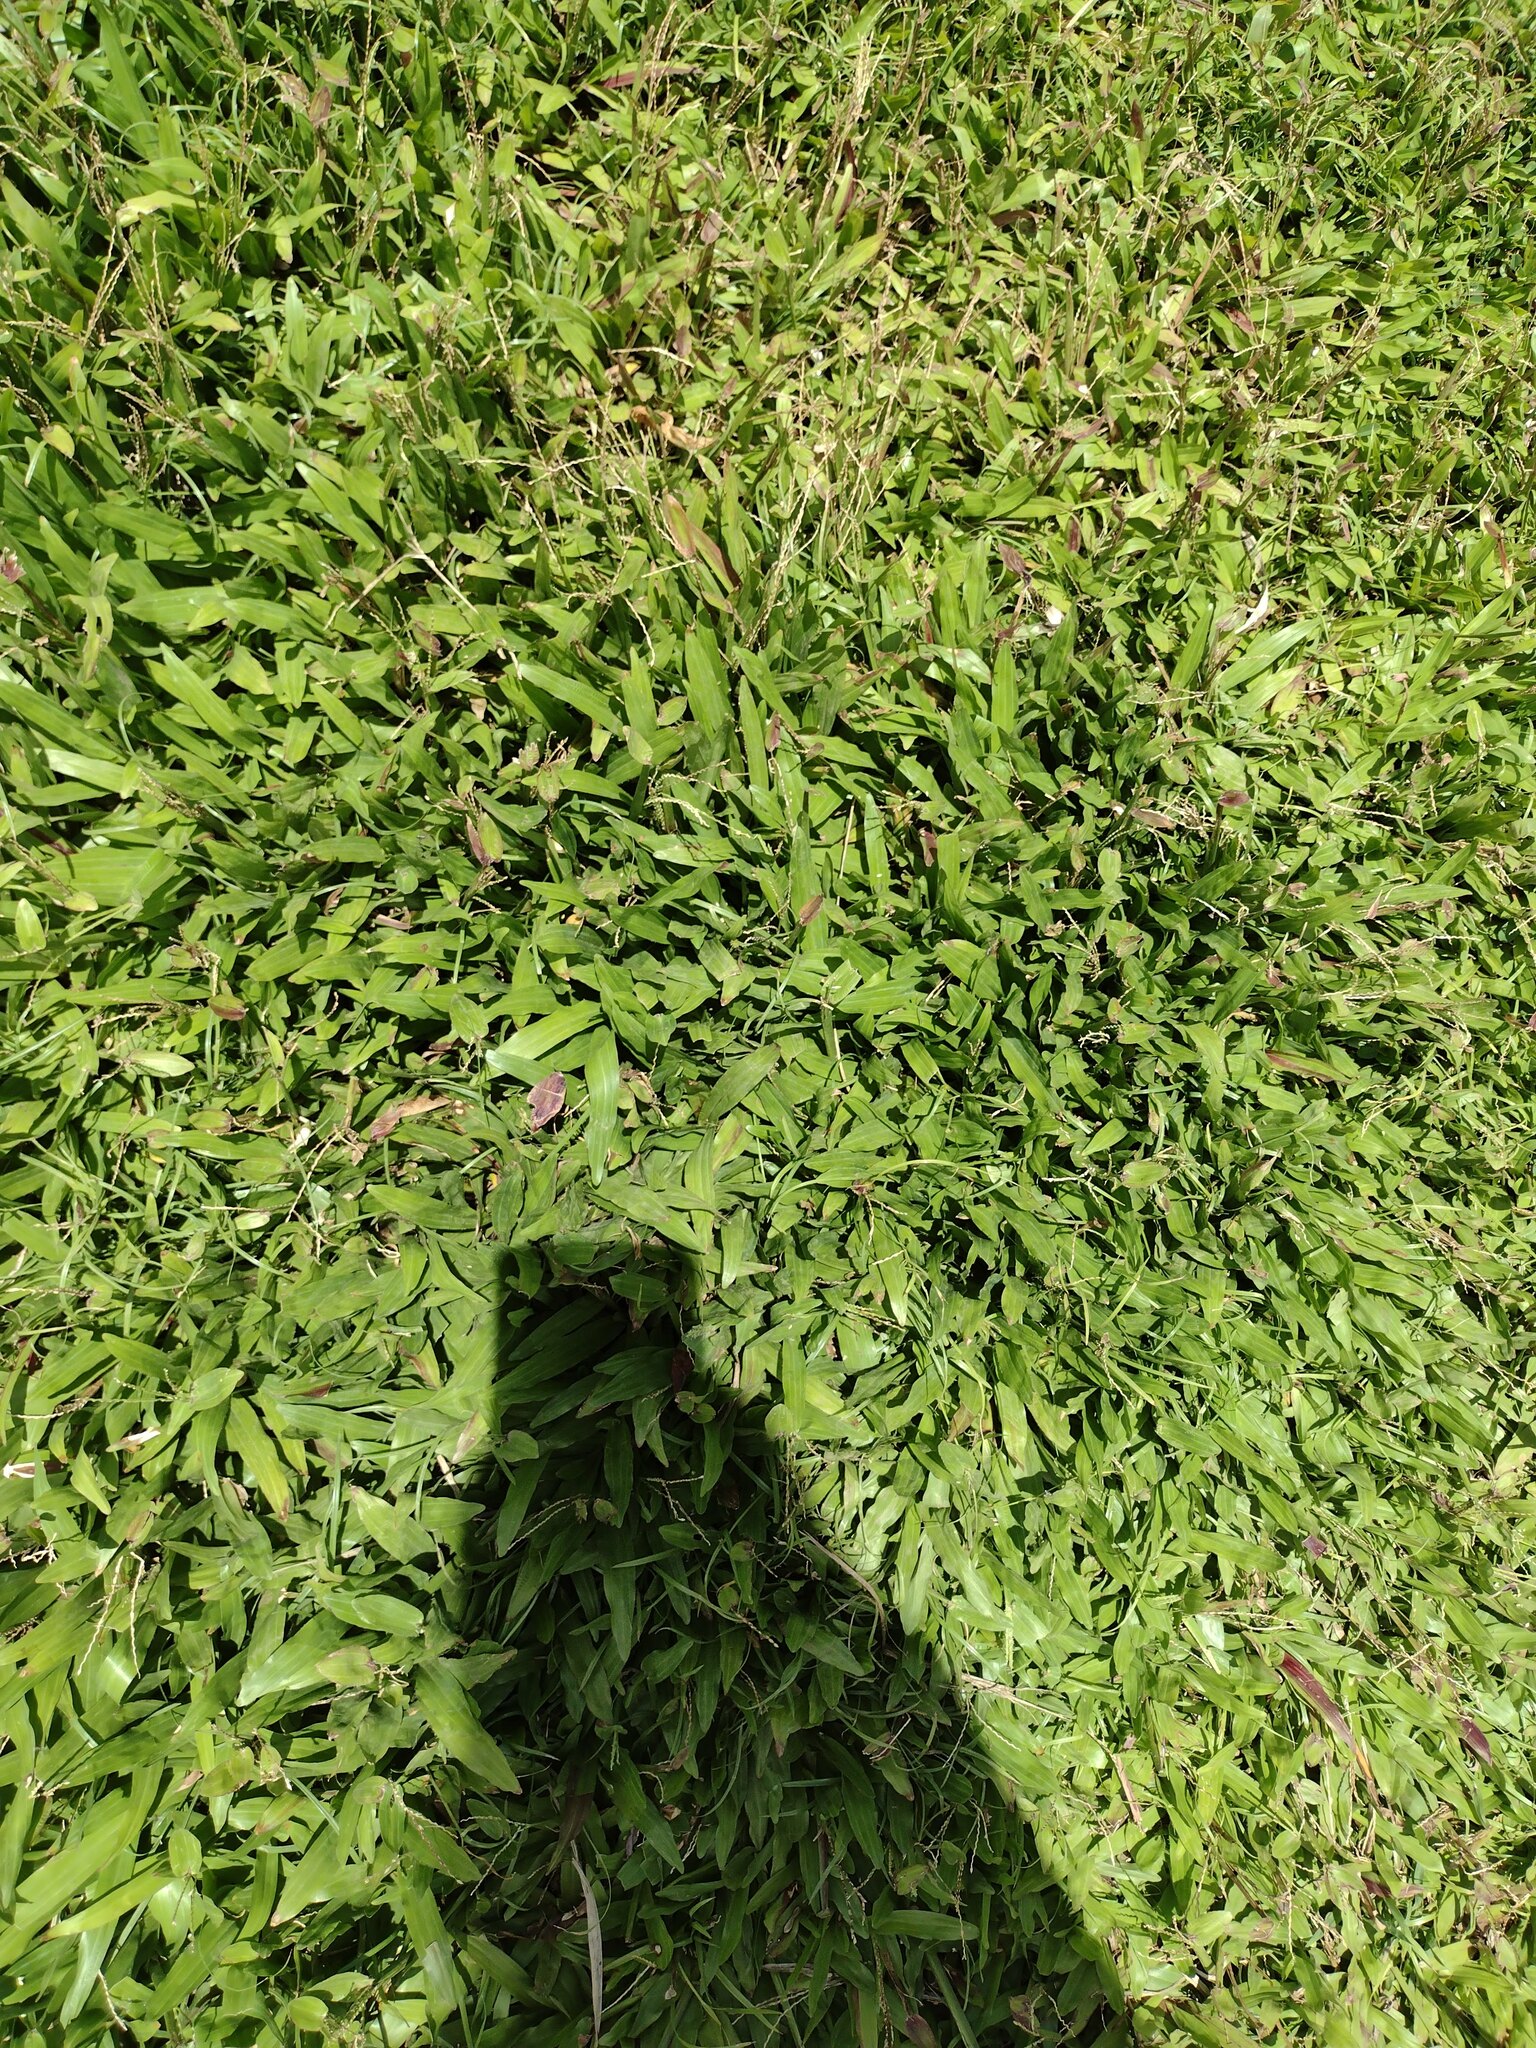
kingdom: Plantae
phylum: Tracheophyta
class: Liliopsida
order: Poales
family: Poaceae
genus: Axonopus
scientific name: Axonopus compressus
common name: American carpet grass
